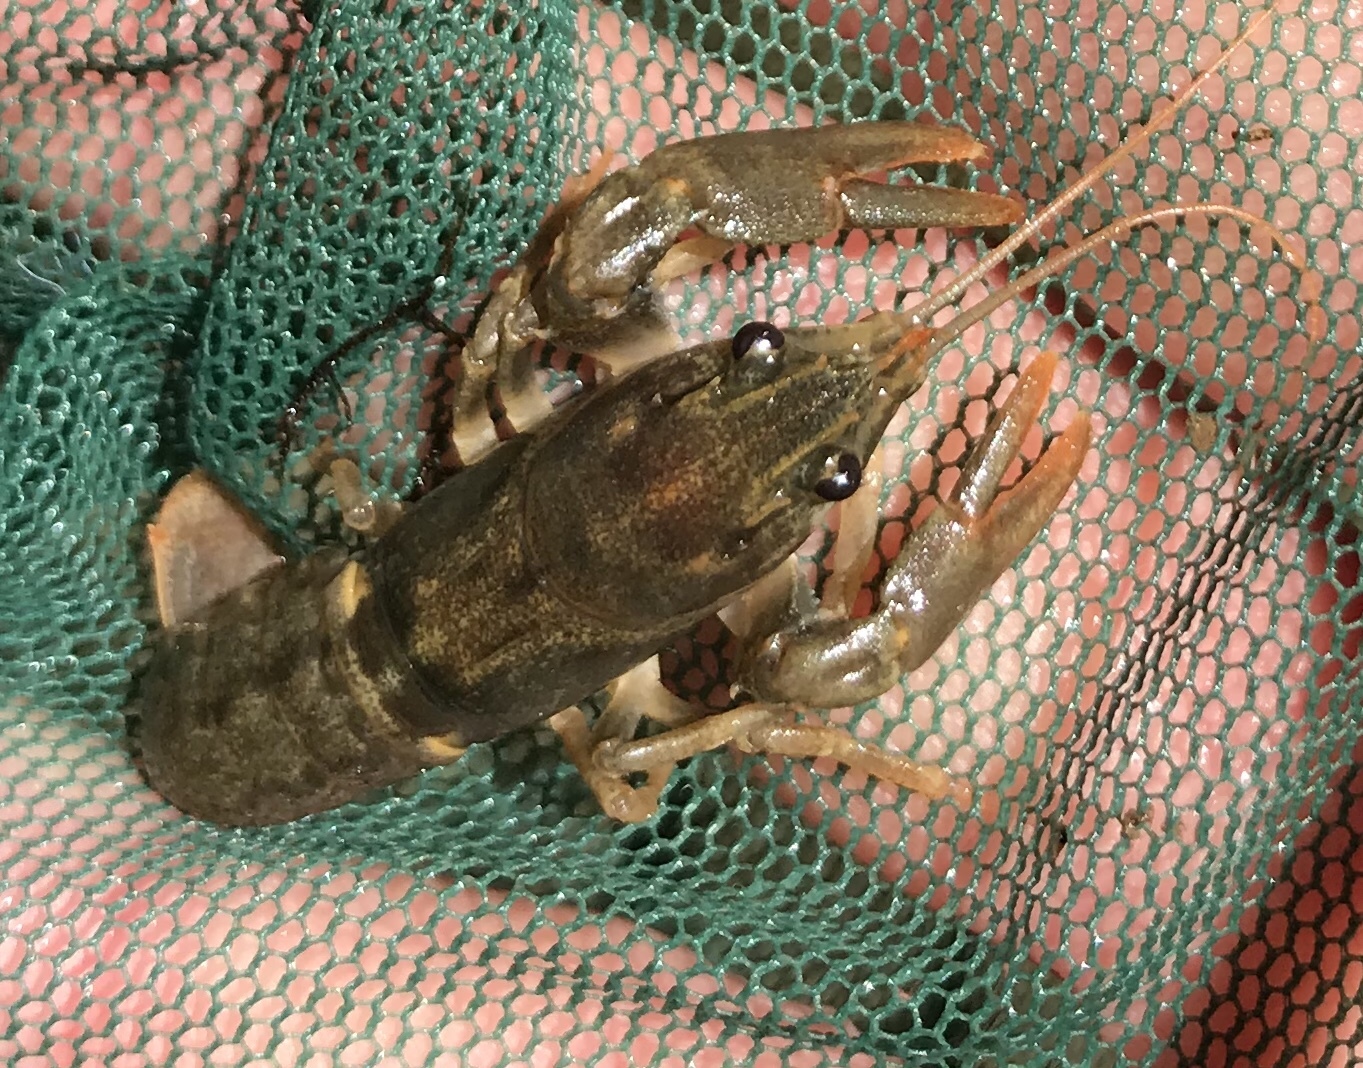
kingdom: Animalia
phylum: Arthropoda
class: Malacostraca
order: Decapoda
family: Astacidae
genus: Pacifastacus
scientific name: Pacifastacus leniusculus
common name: Signal crayfish
